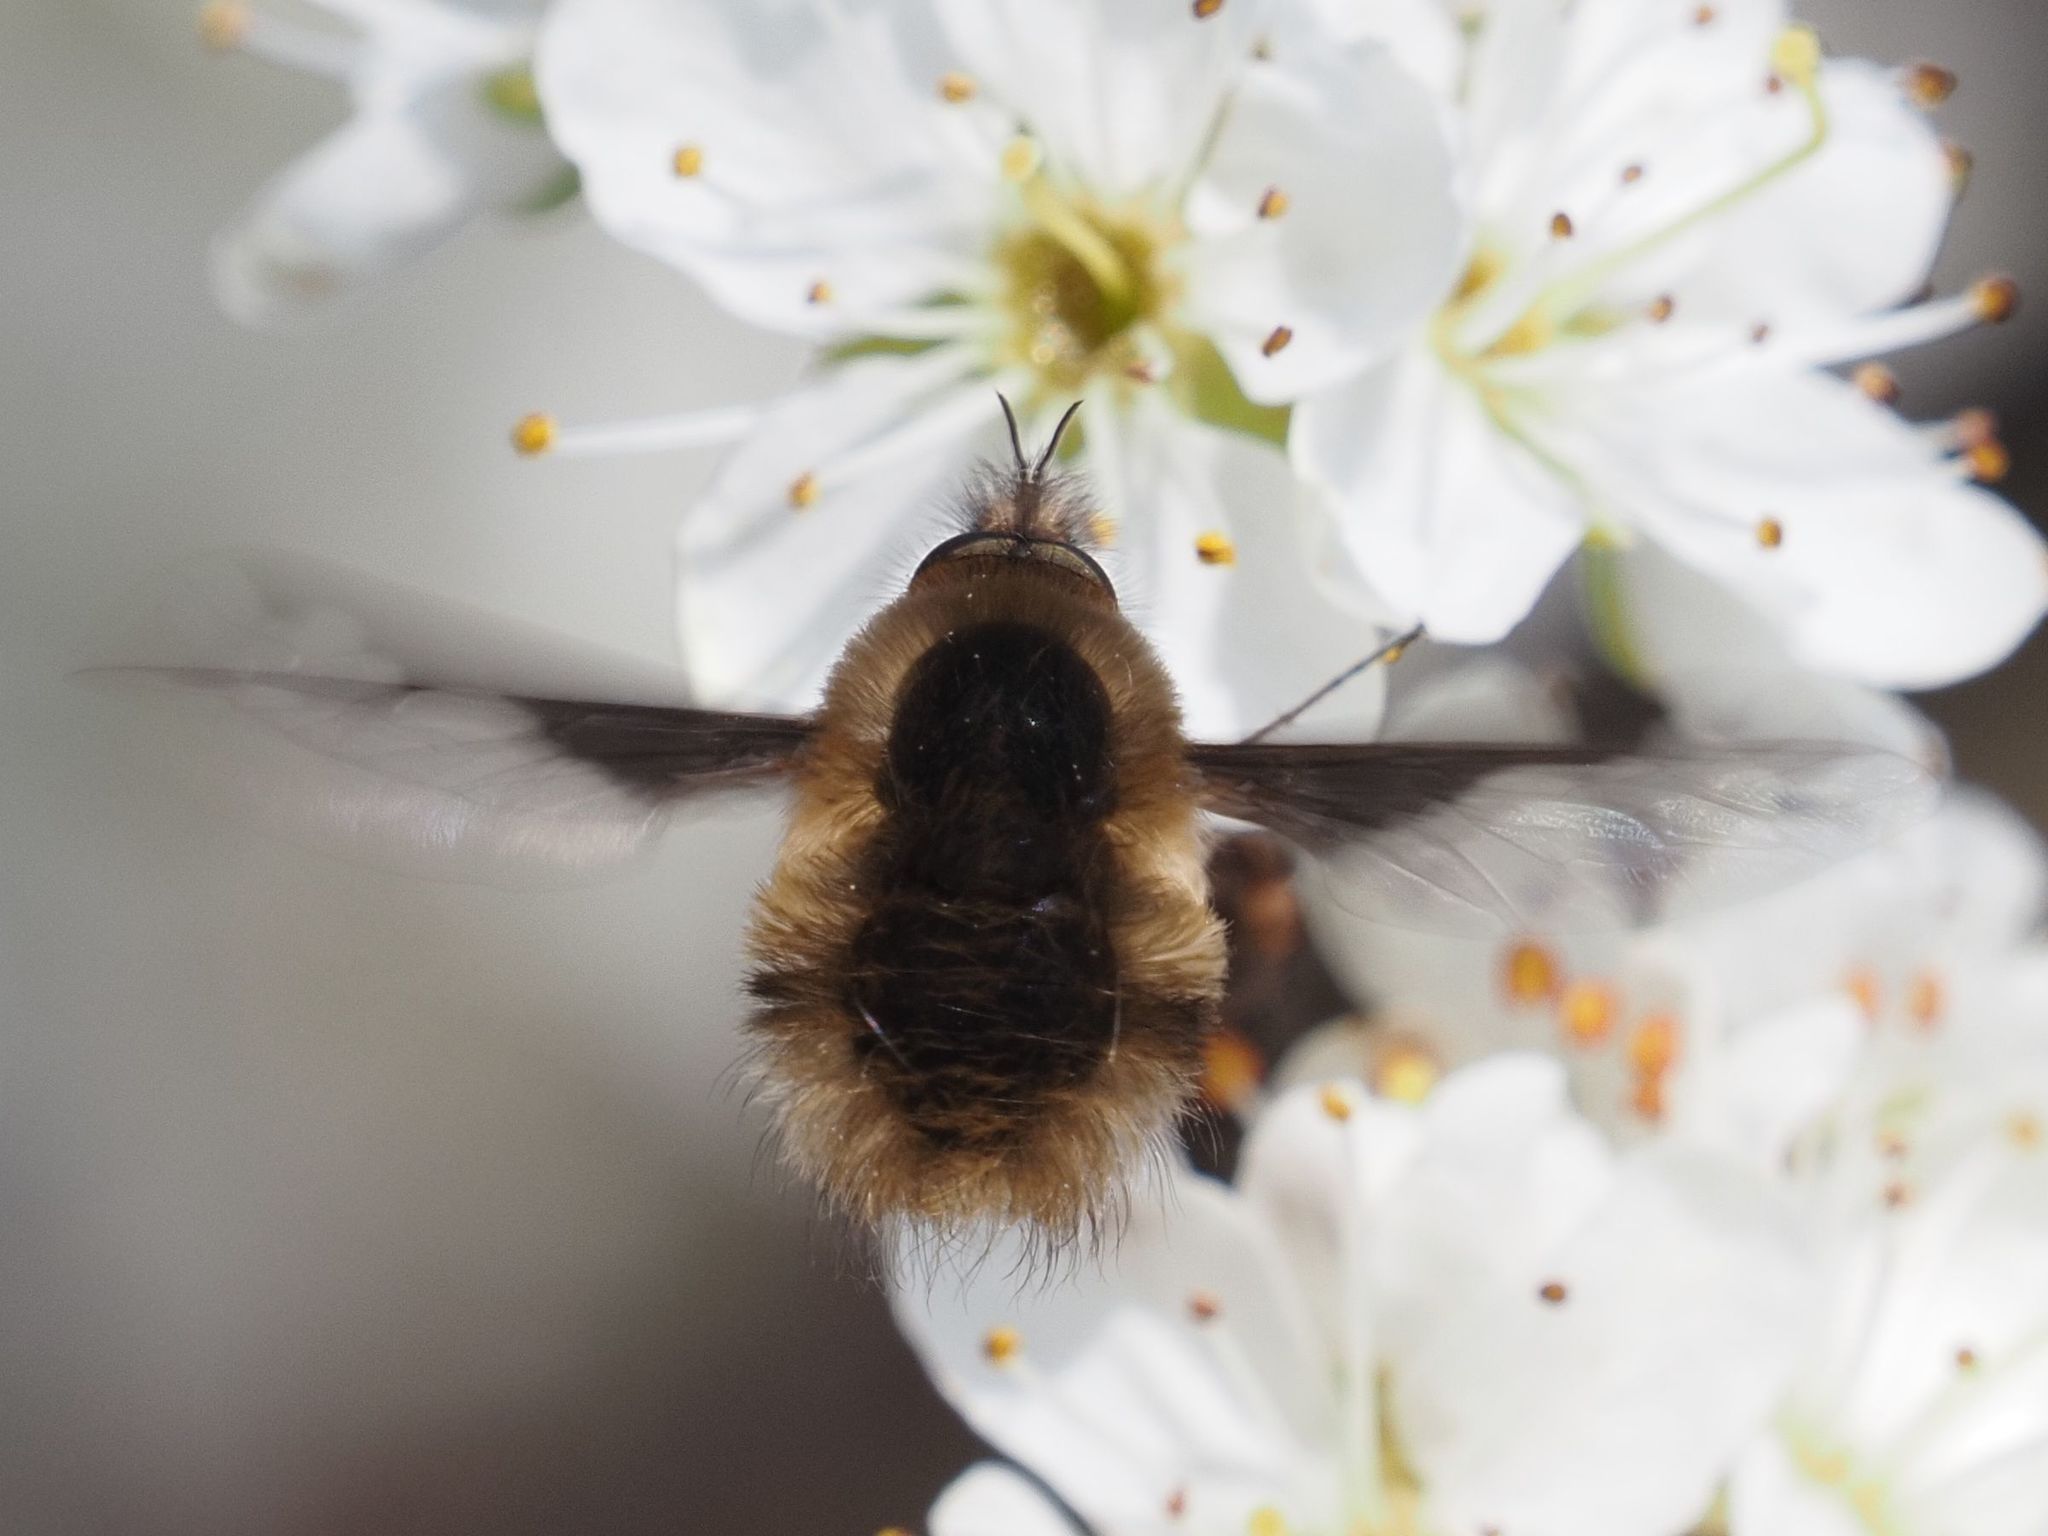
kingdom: Animalia
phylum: Arthropoda
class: Insecta
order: Diptera
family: Bombyliidae
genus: Bombylius
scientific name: Bombylius major
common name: Bee fly
